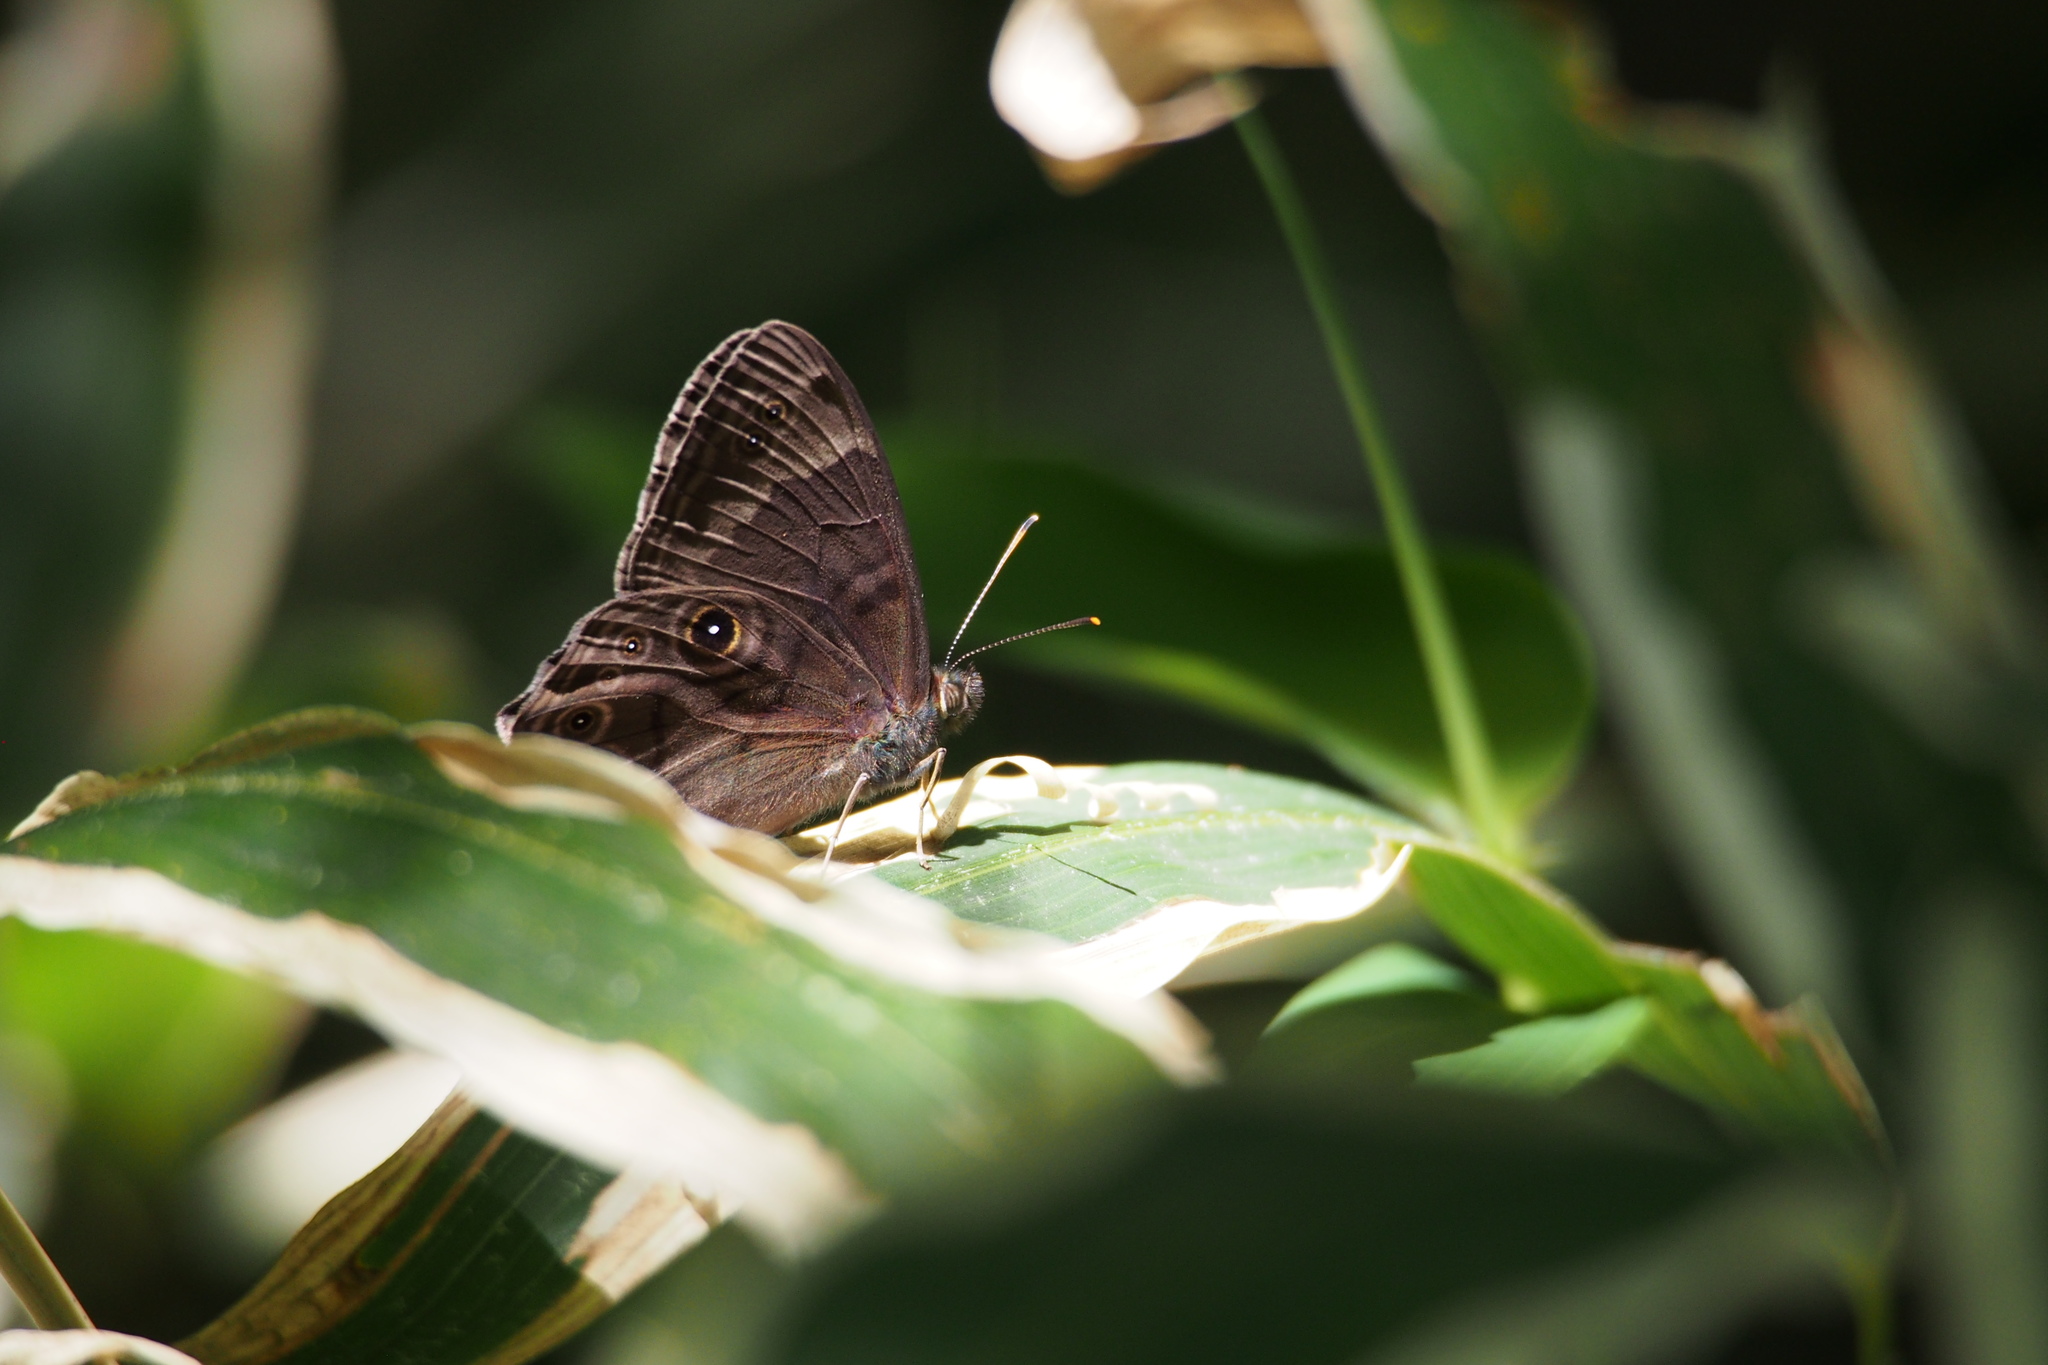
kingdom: Animalia
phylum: Arthropoda
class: Insecta
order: Lepidoptera
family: Nymphalidae
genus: Lethe
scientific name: Lethe diana
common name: Diana treebrown
